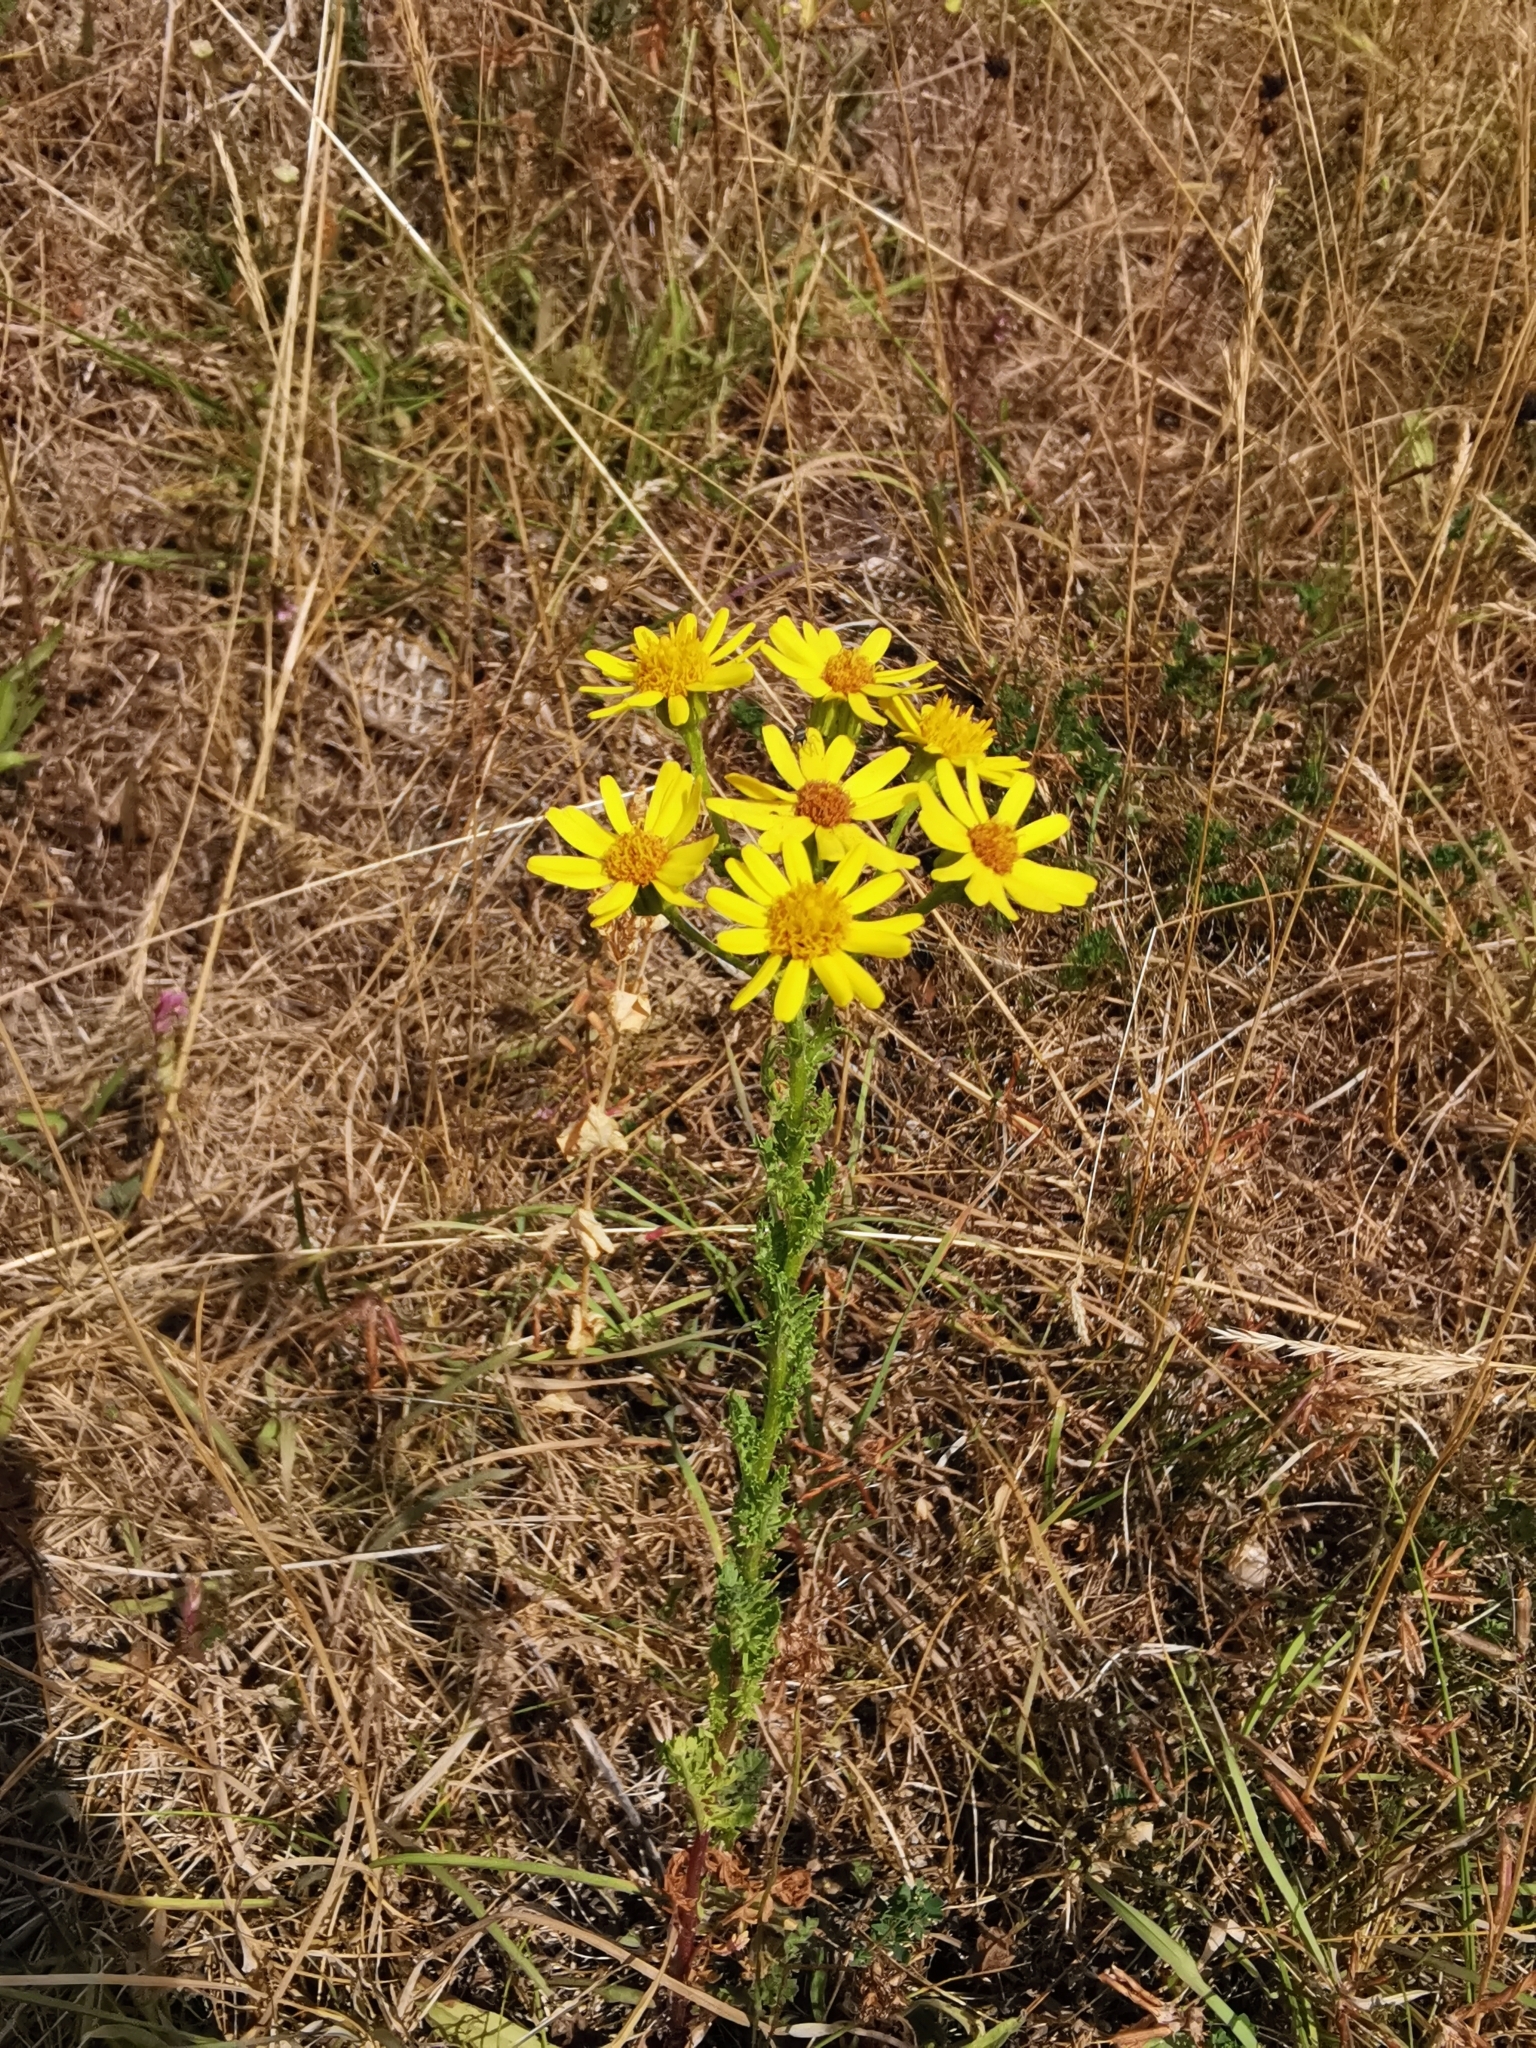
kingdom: Plantae
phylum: Tracheophyta
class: Magnoliopsida
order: Asterales
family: Asteraceae
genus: Jacobaea
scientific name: Jacobaea erucifolia
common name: Hoary ragwort
